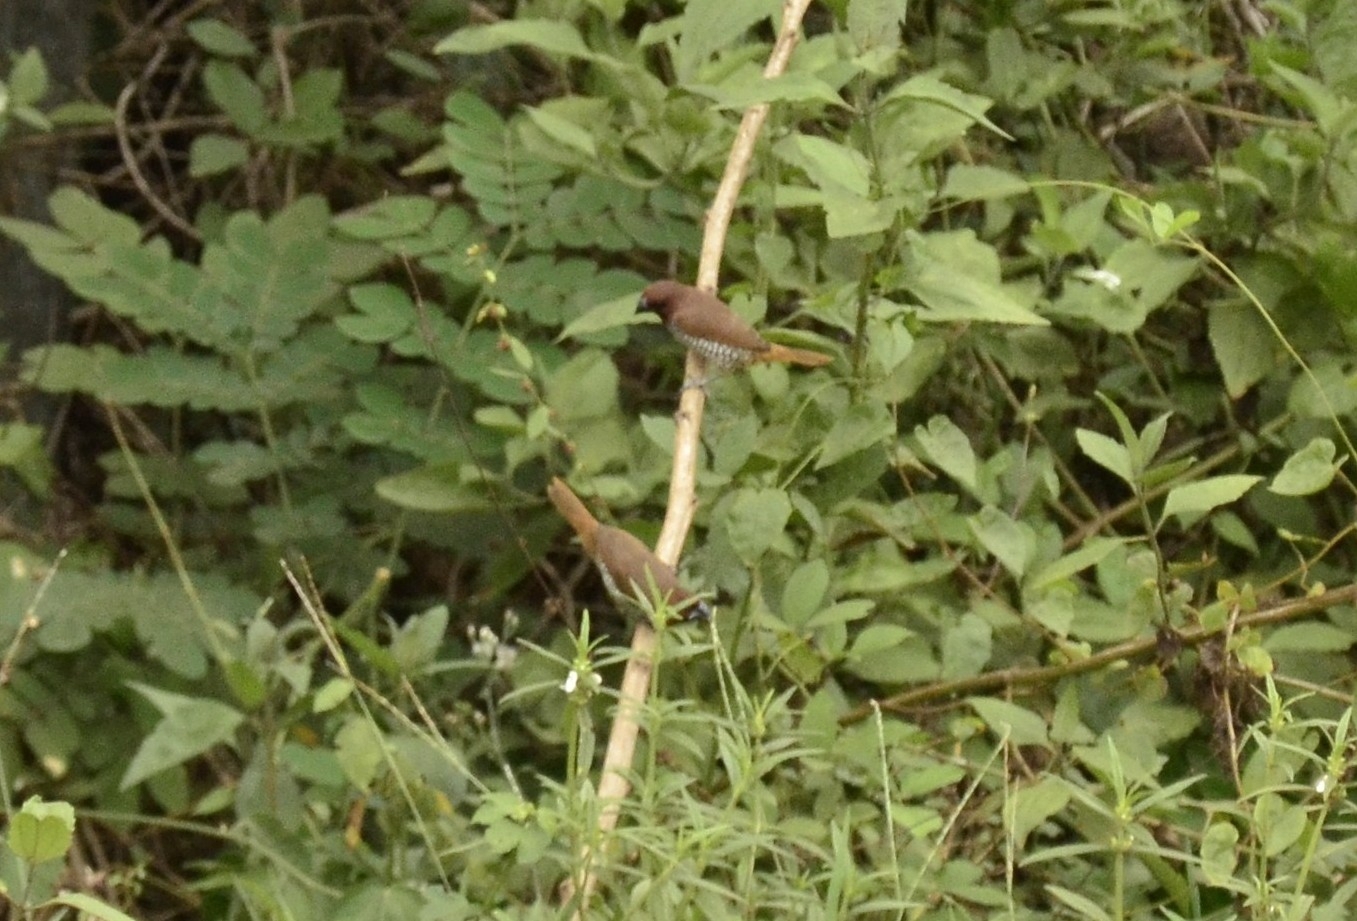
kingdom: Animalia
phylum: Chordata
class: Aves
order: Passeriformes
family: Estrildidae
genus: Lonchura
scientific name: Lonchura punctulata
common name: Scaly-breasted munia
